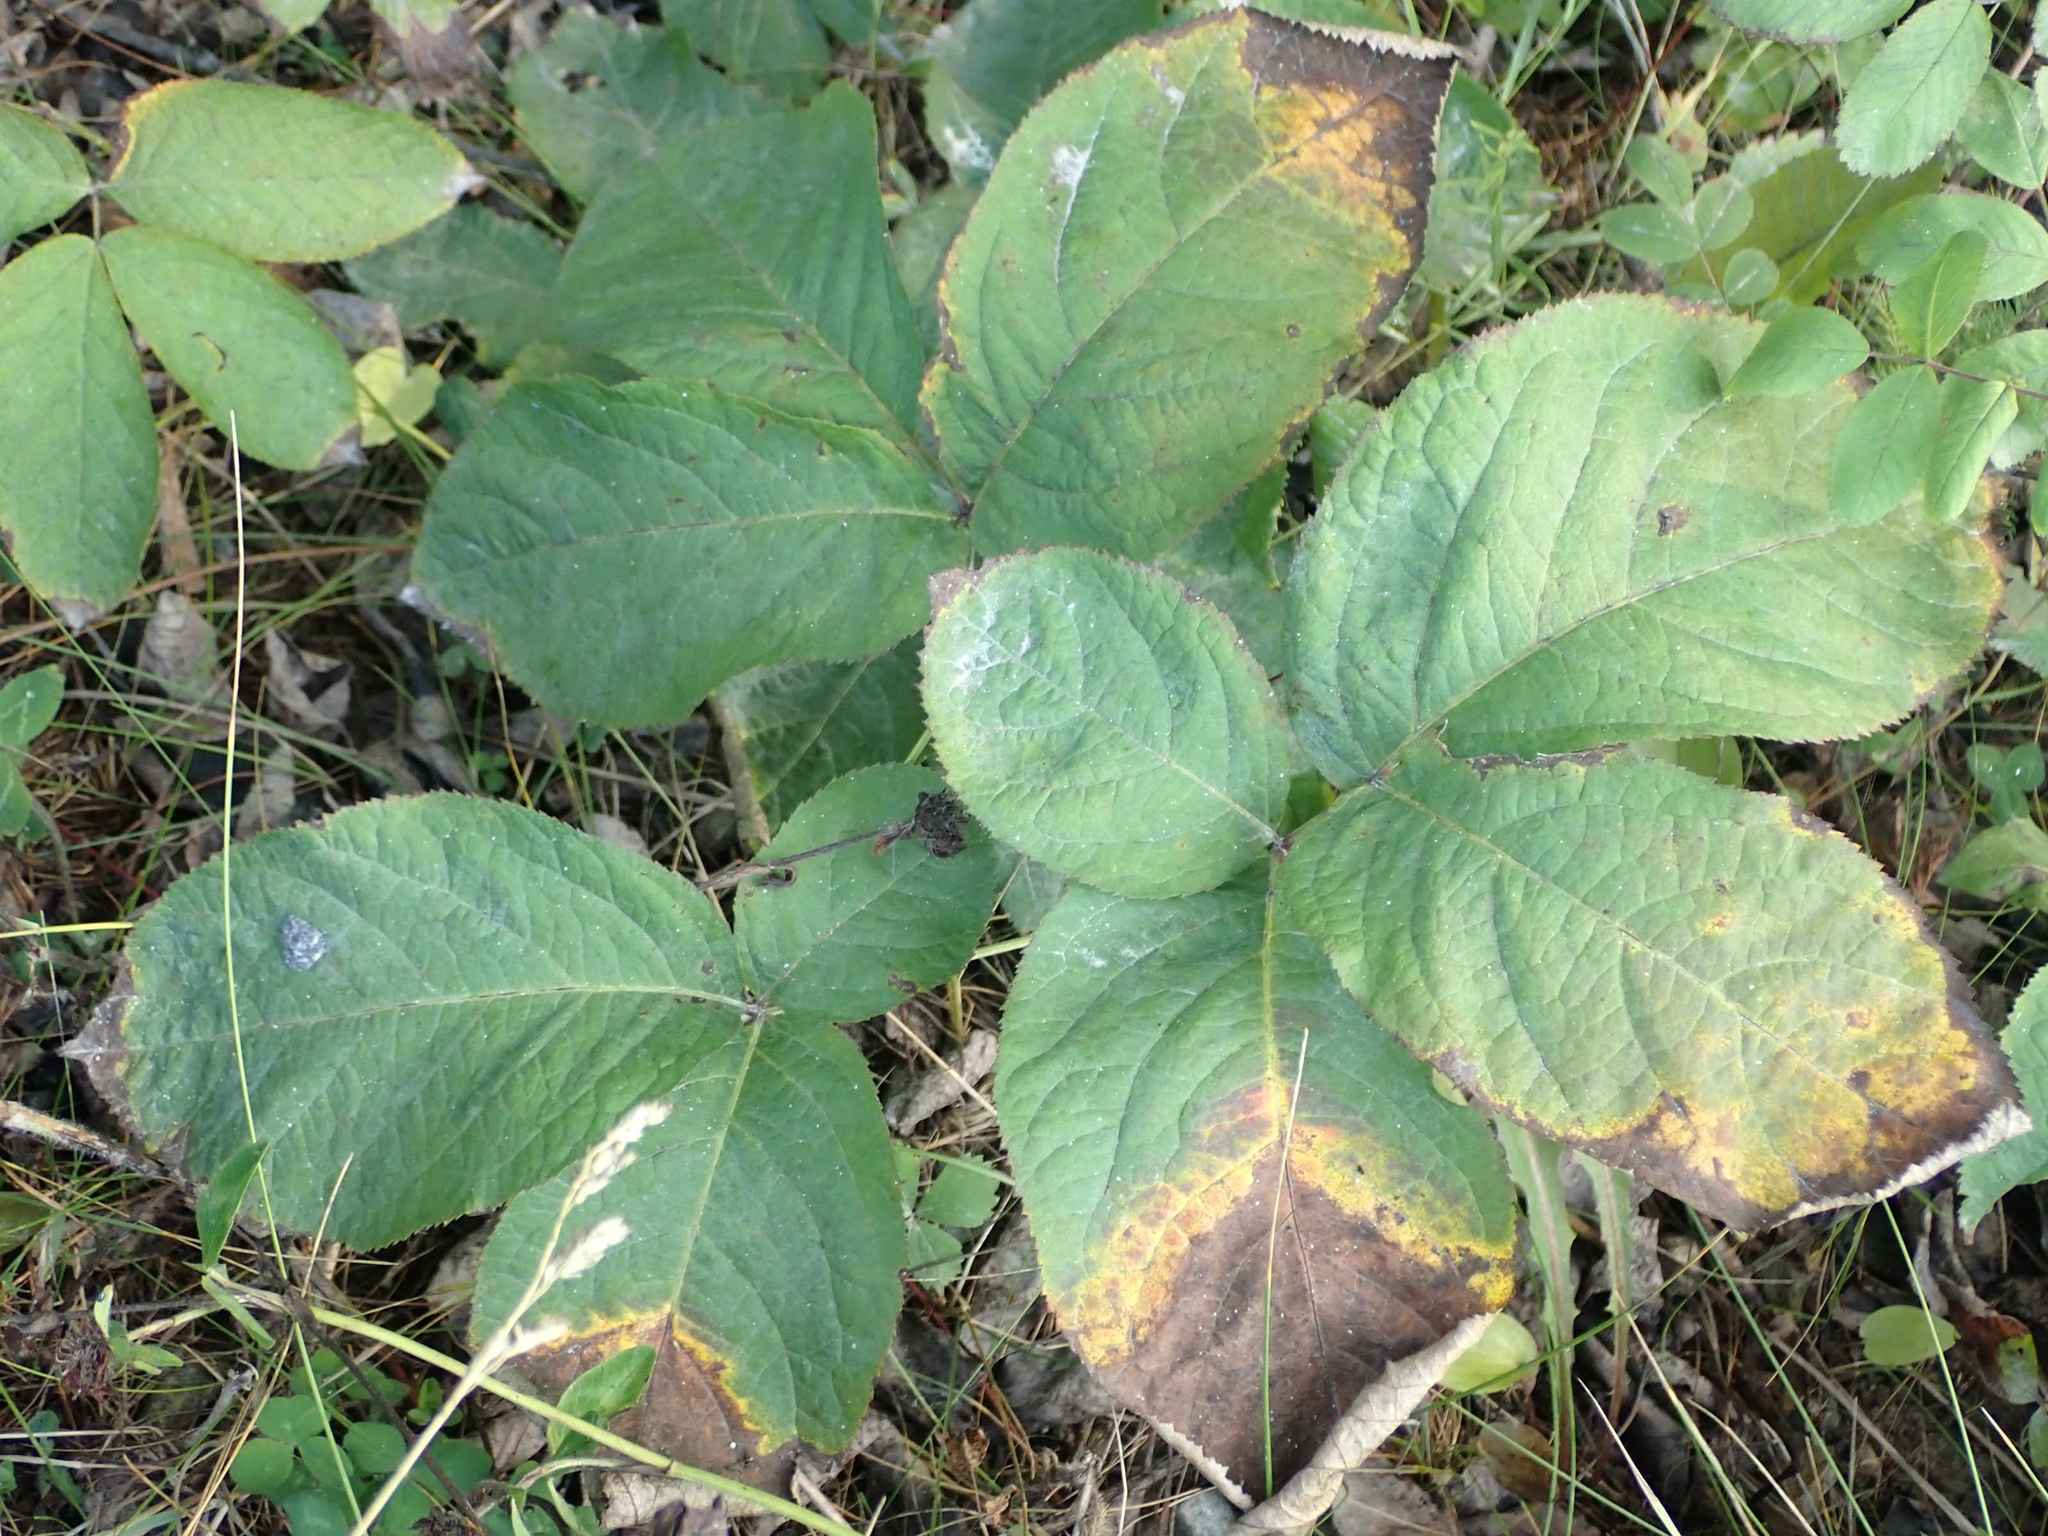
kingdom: Plantae
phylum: Tracheophyta
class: Magnoliopsida
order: Apiales
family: Araliaceae
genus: Aralia
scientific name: Aralia nudicaulis
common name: Wild sarsaparilla
